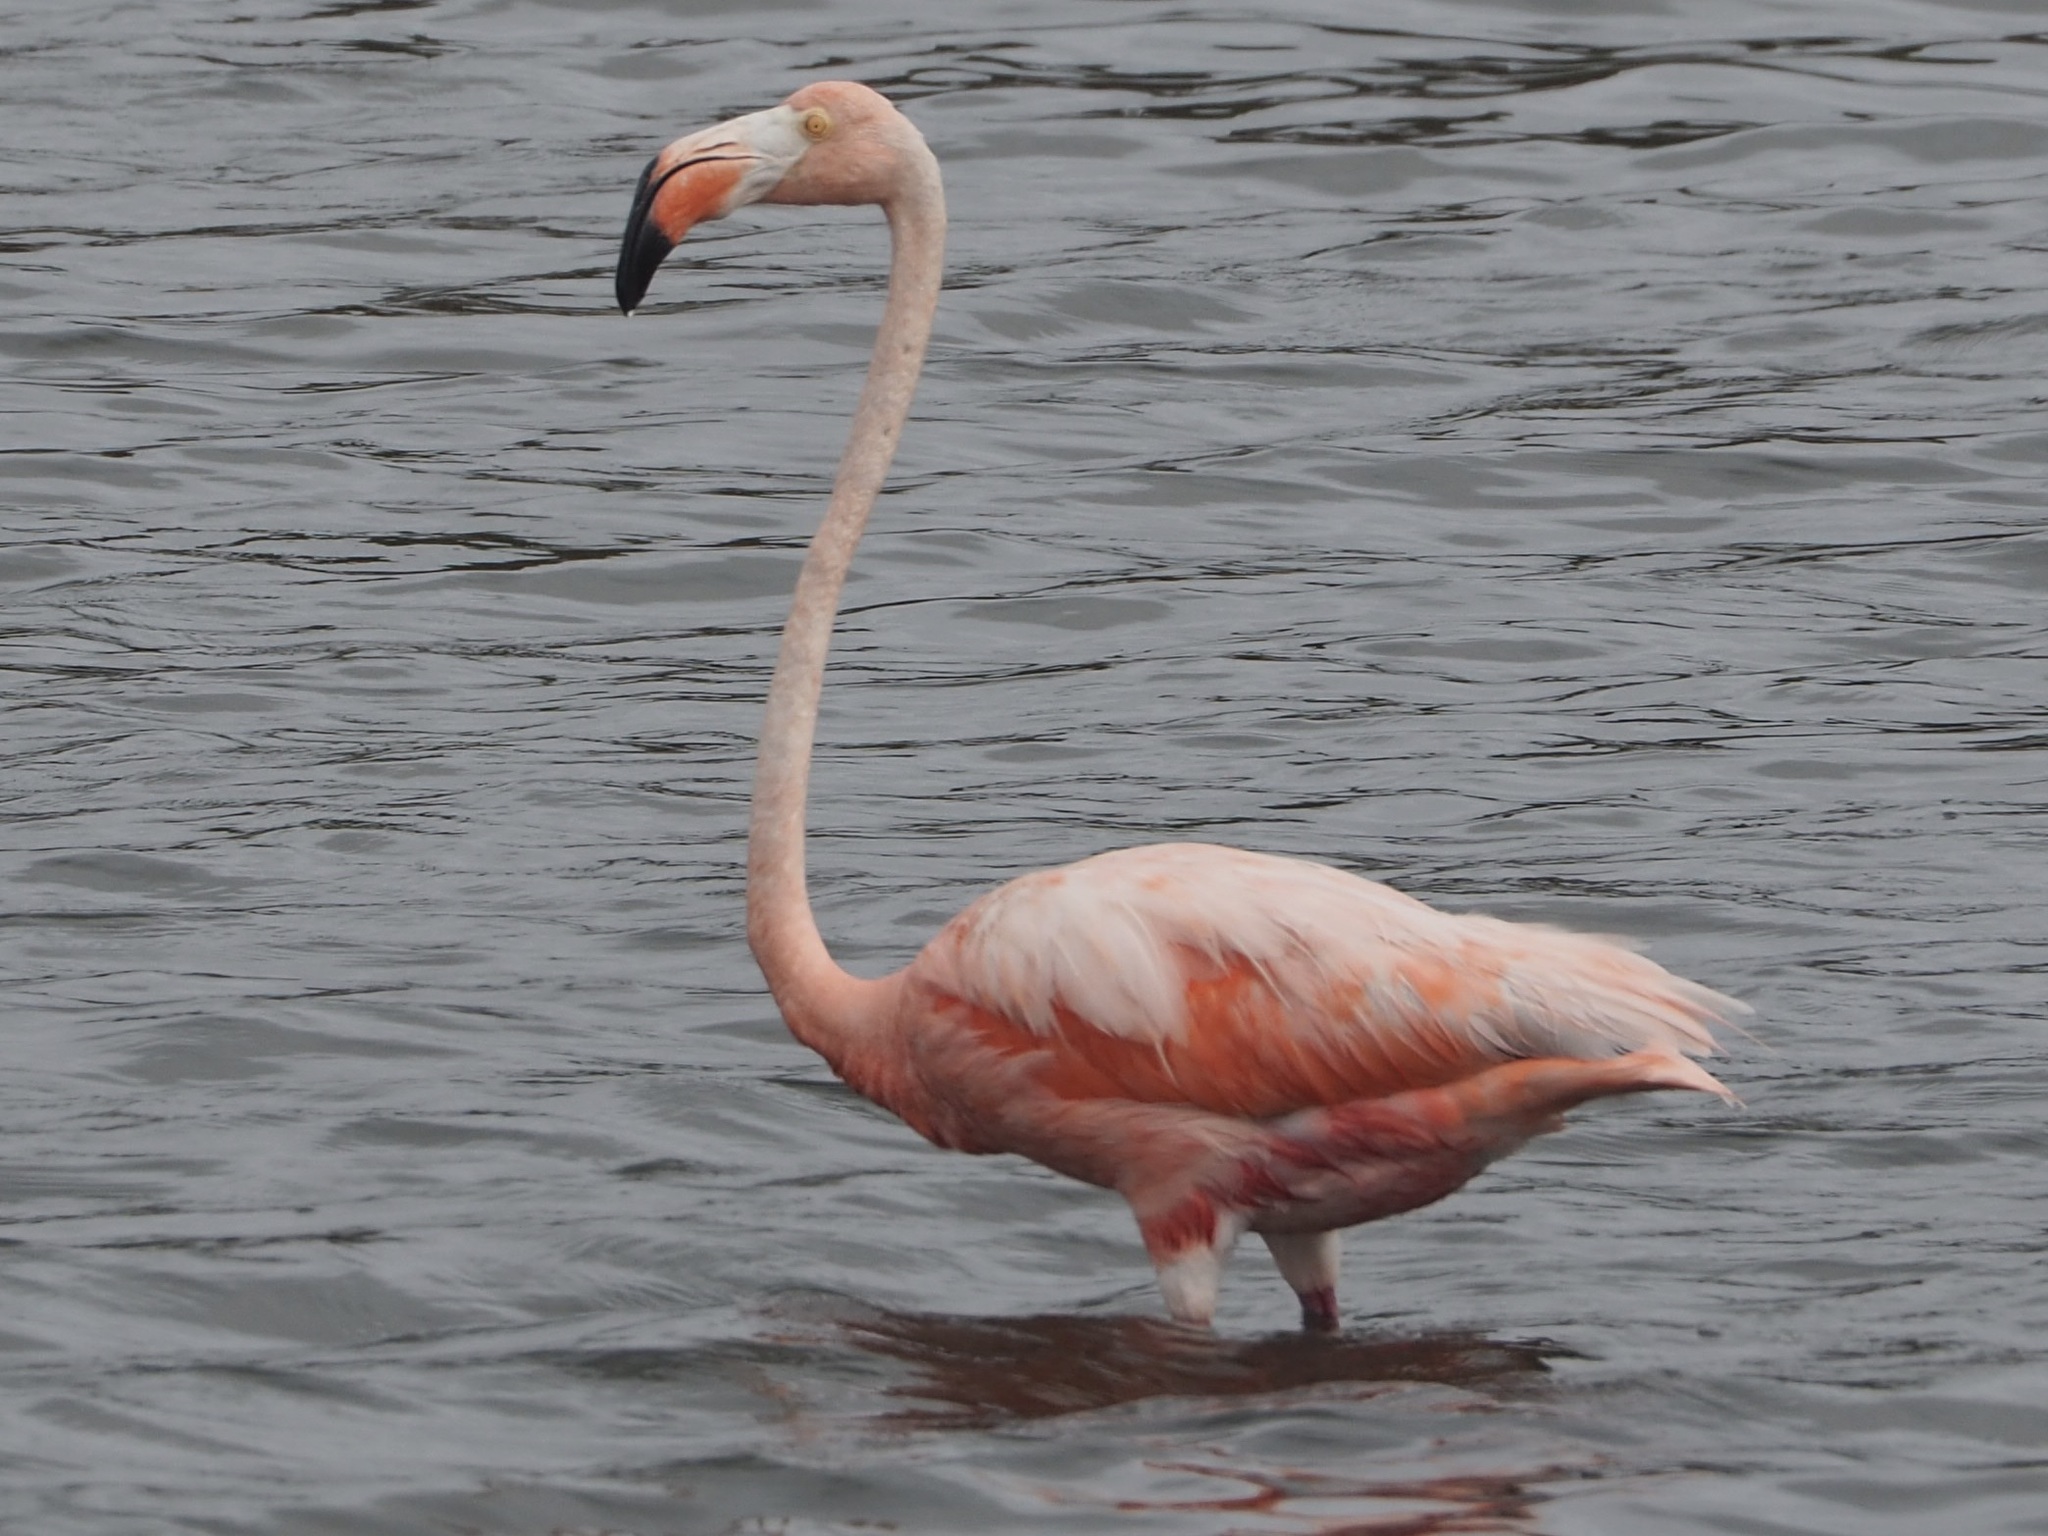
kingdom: Animalia
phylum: Chordata
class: Aves
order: Phoenicopteriformes
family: Phoenicopteridae
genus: Phoenicopterus
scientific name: Phoenicopterus ruber
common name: American flamingo
